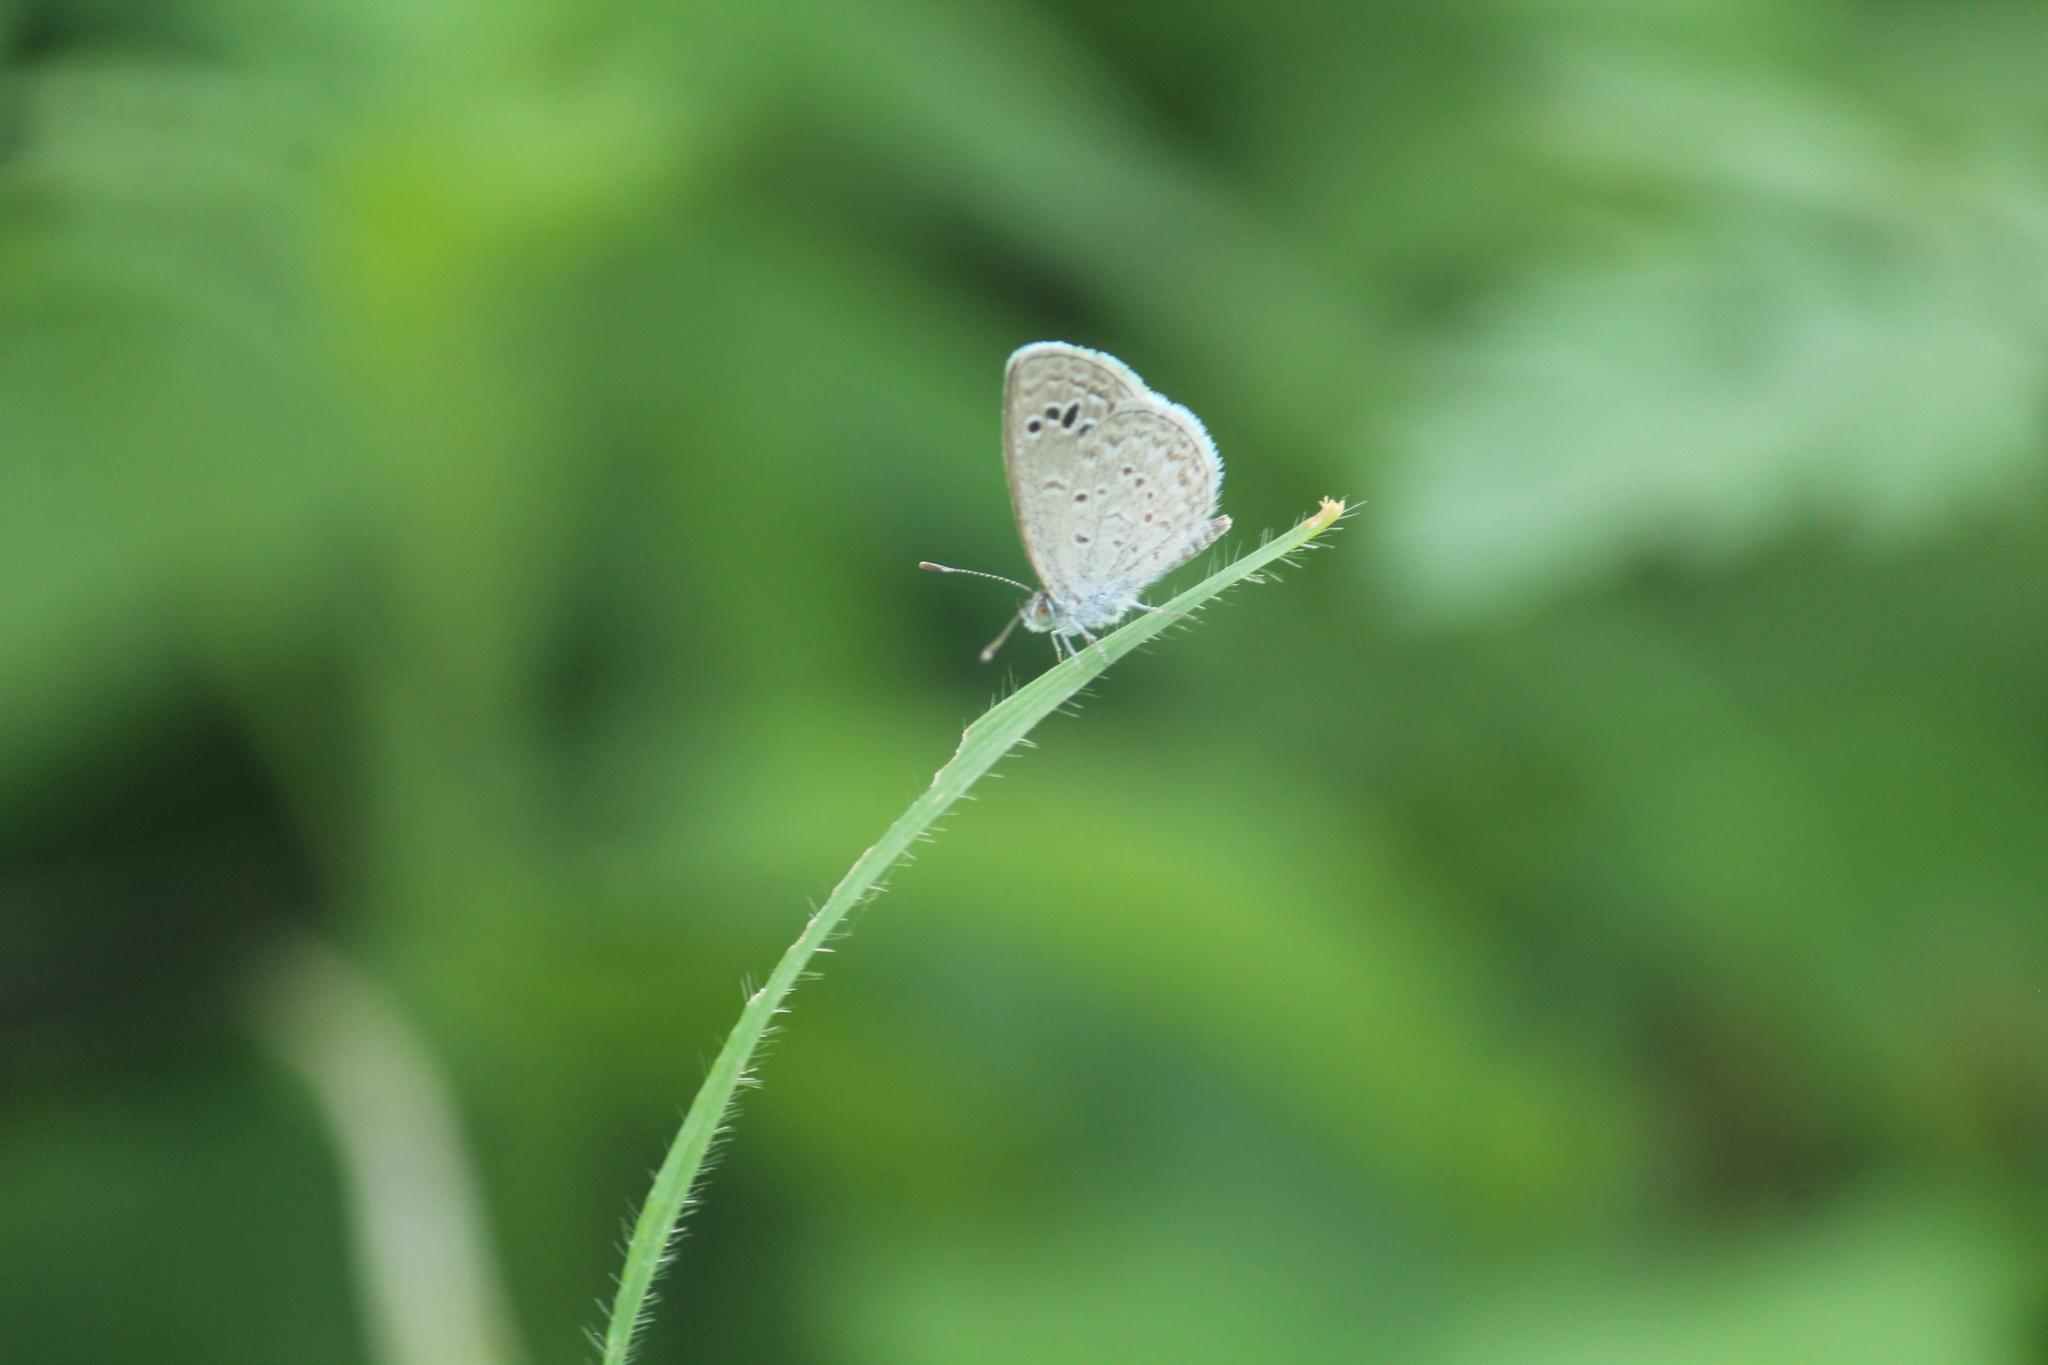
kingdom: Animalia
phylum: Arthropoda
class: Insecta
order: Lepidoptera
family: Lycaenidae
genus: Zizina
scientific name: Zizina otis
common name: Lesser grass blue
